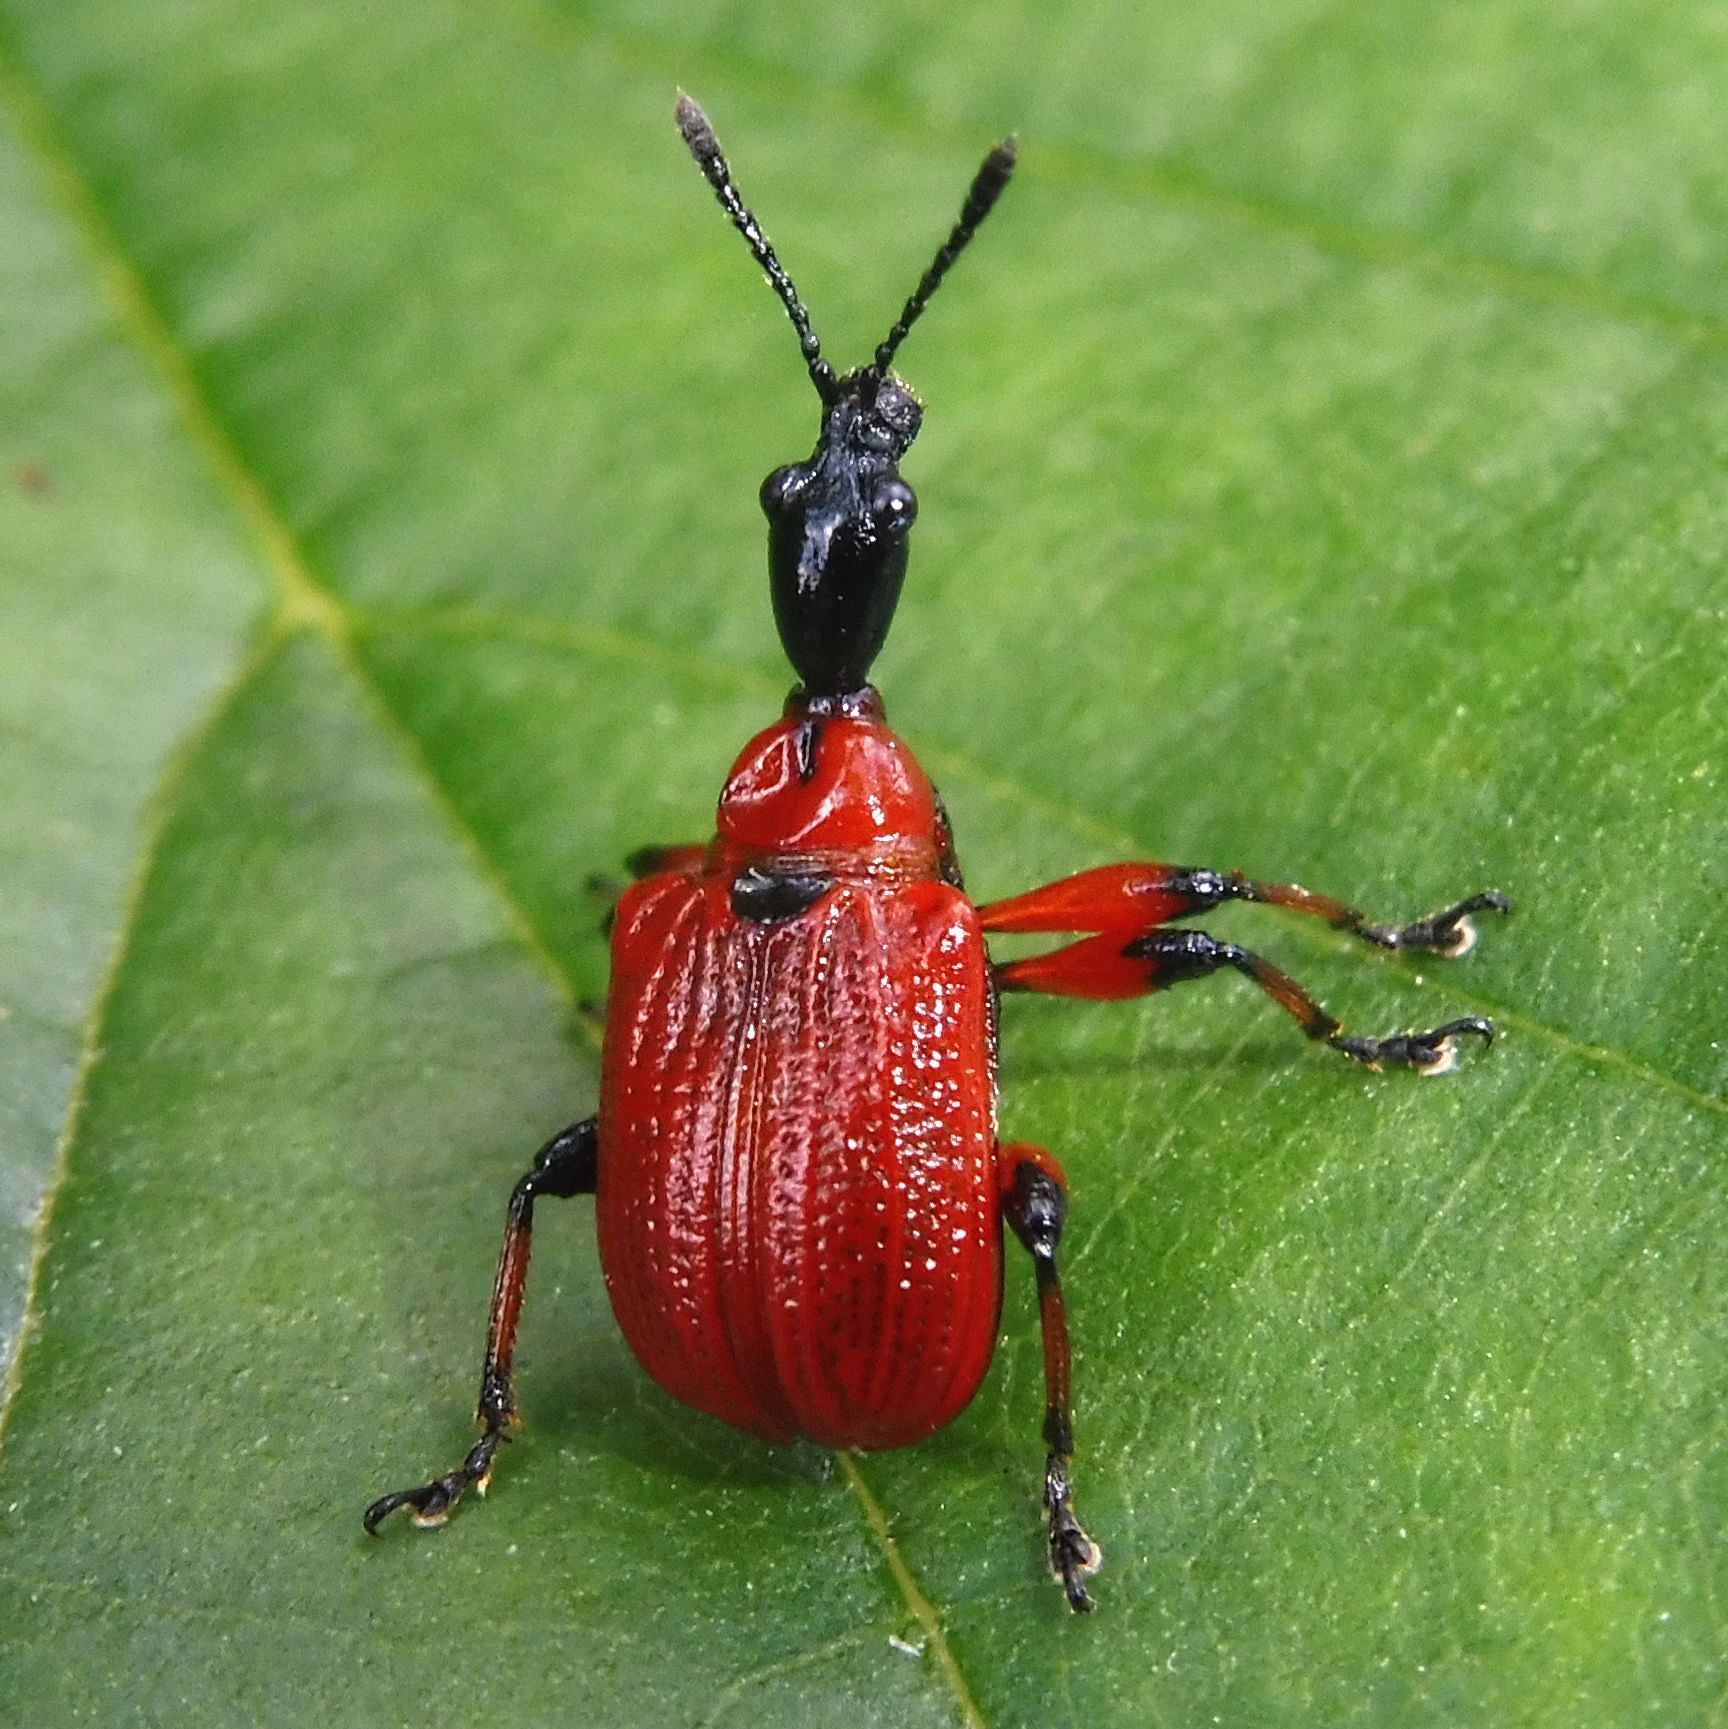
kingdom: Animalia
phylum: Arthropoda
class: Insecta
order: Coleoptera
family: Attelabidae
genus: Apoderus
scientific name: Apoderus coryli
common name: Hazel leaf roller
